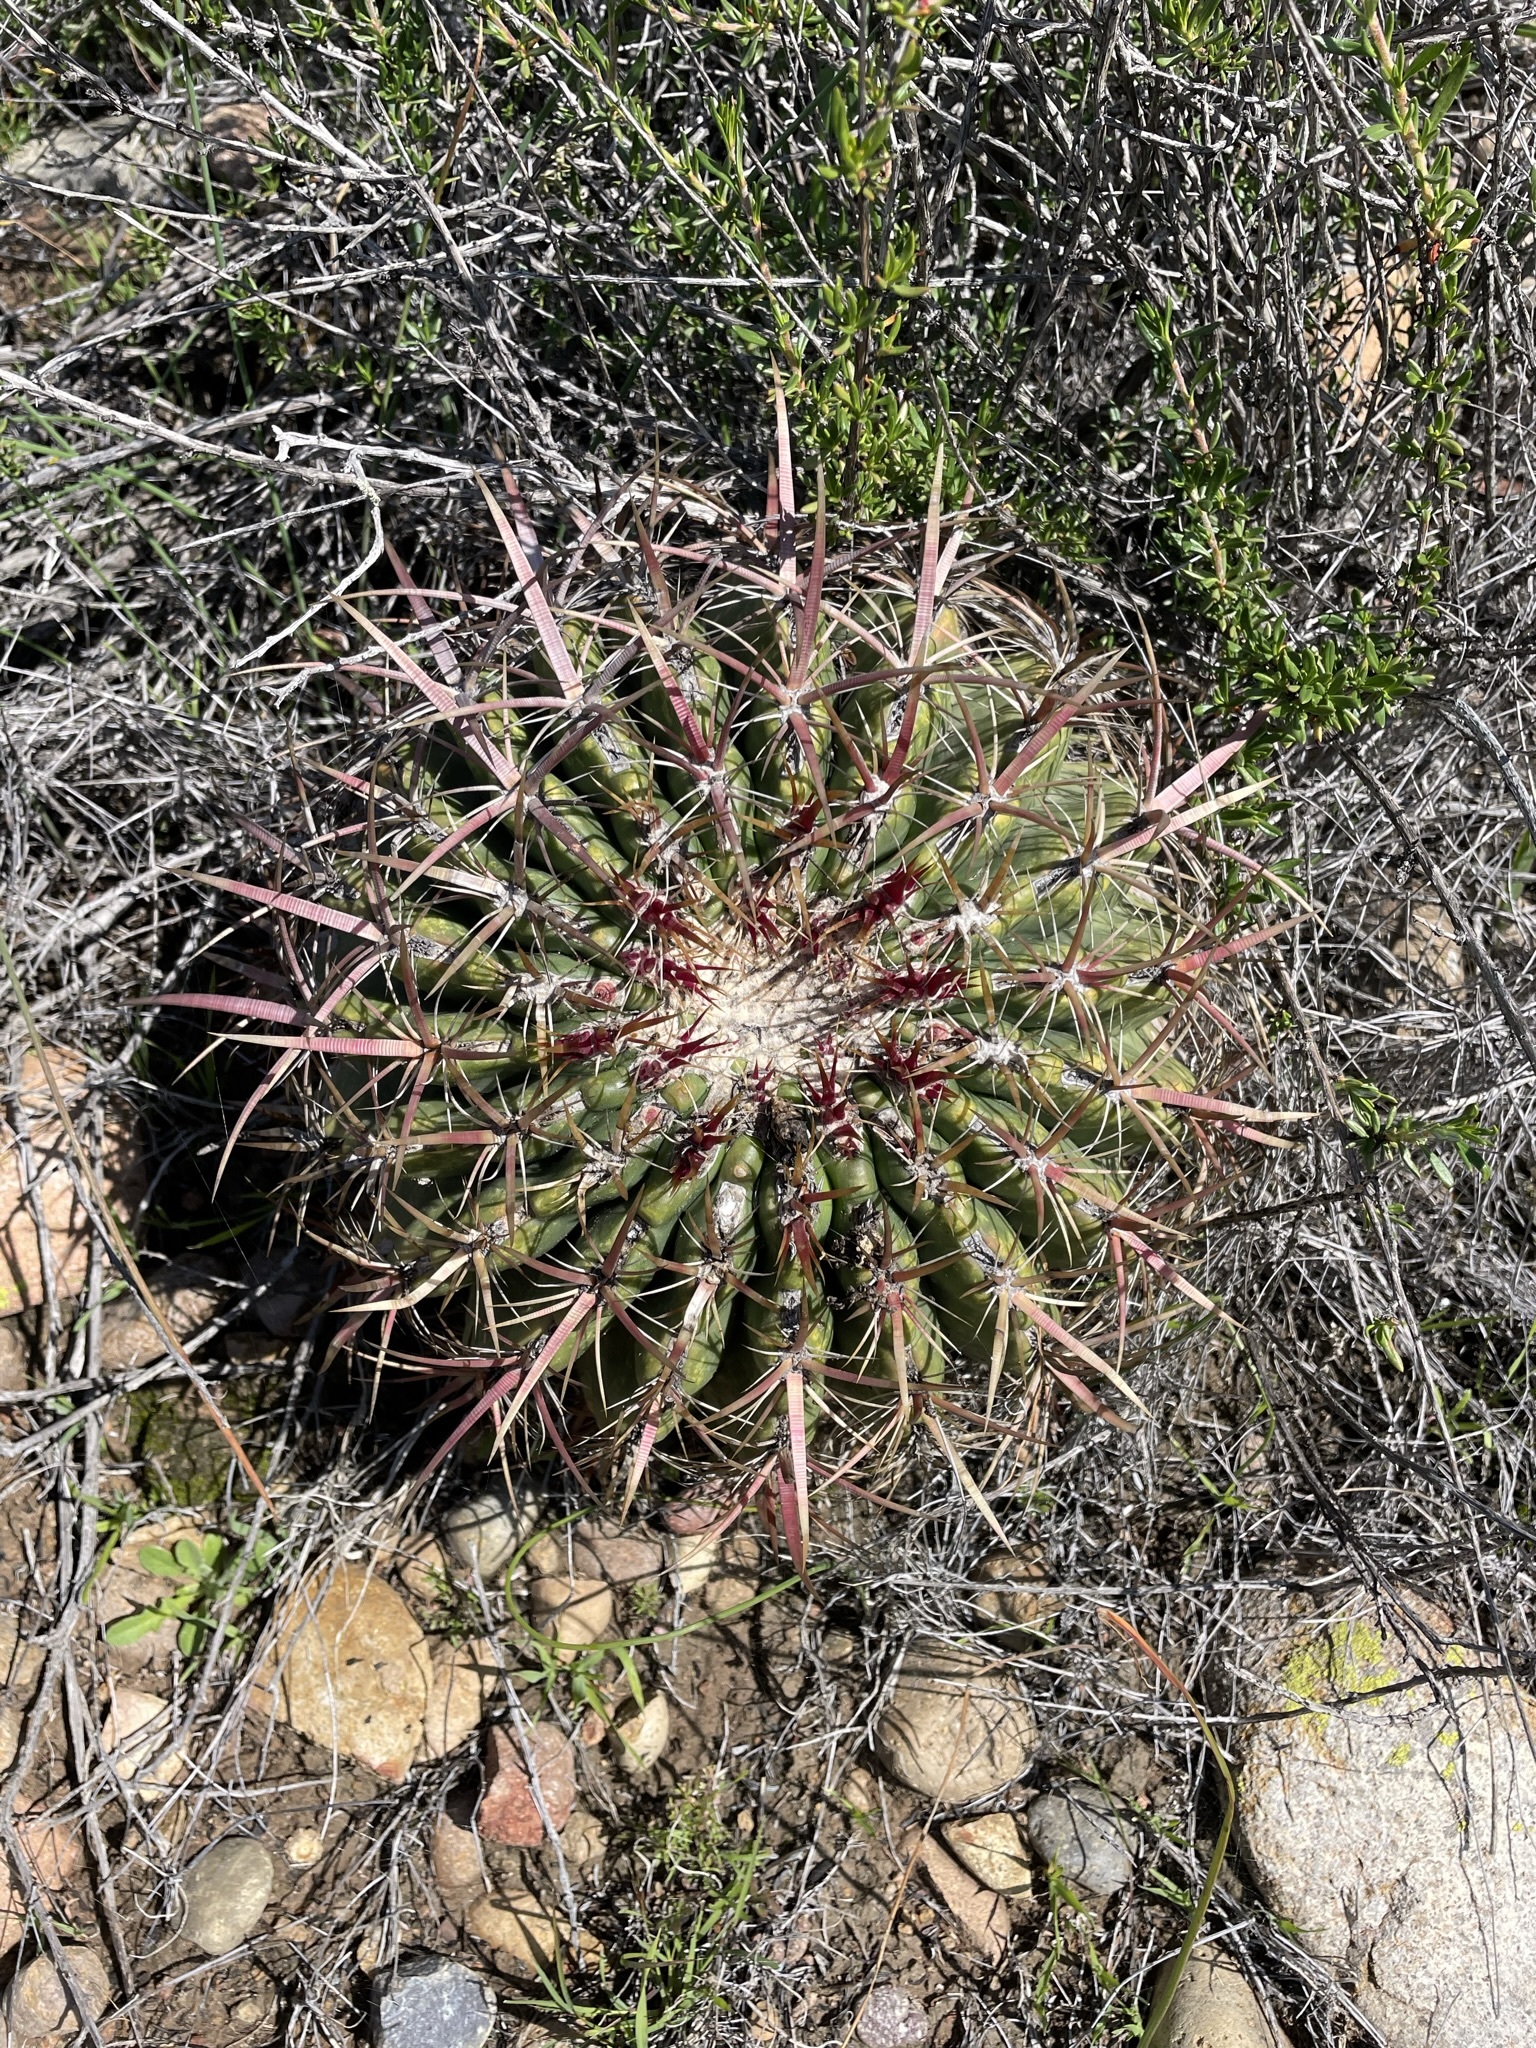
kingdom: Plantae
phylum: Tracheophyta
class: Magnoliopsida
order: Caryophyllales
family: Cactaceae
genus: Ferocactus
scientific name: Ferocactus viridescens
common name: San diego barrel cactus
